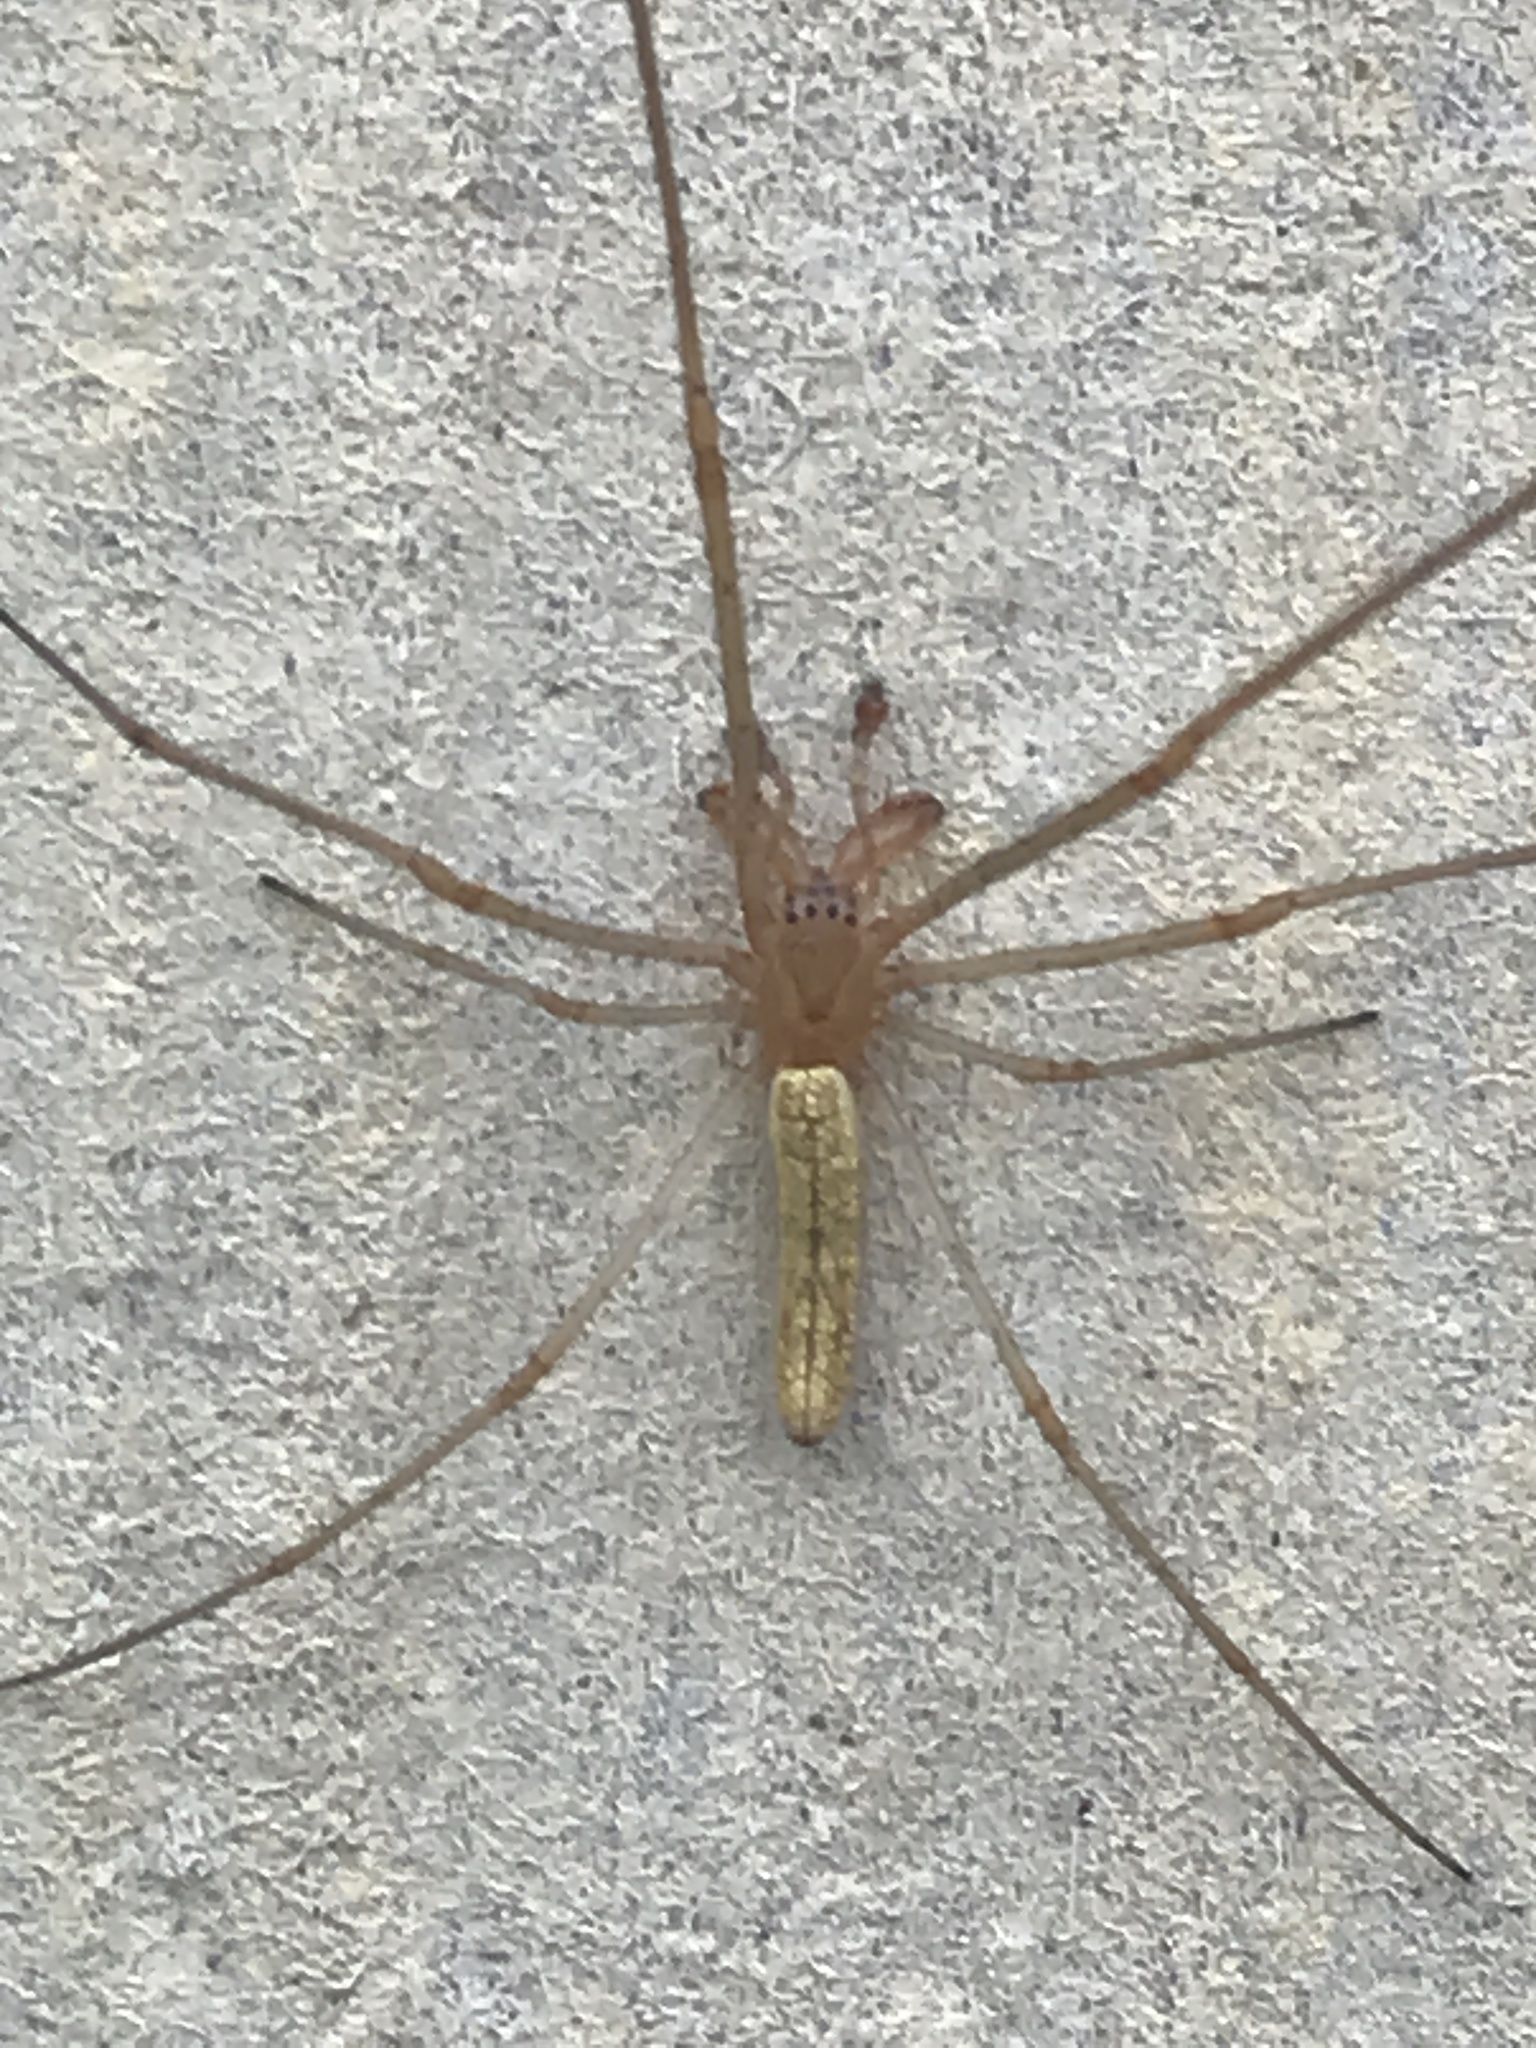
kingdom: Animalia
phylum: Arthropoda
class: Arachnida
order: Araneae
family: Tetragnathidae
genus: Tetragnatha
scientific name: Tetragnatha
